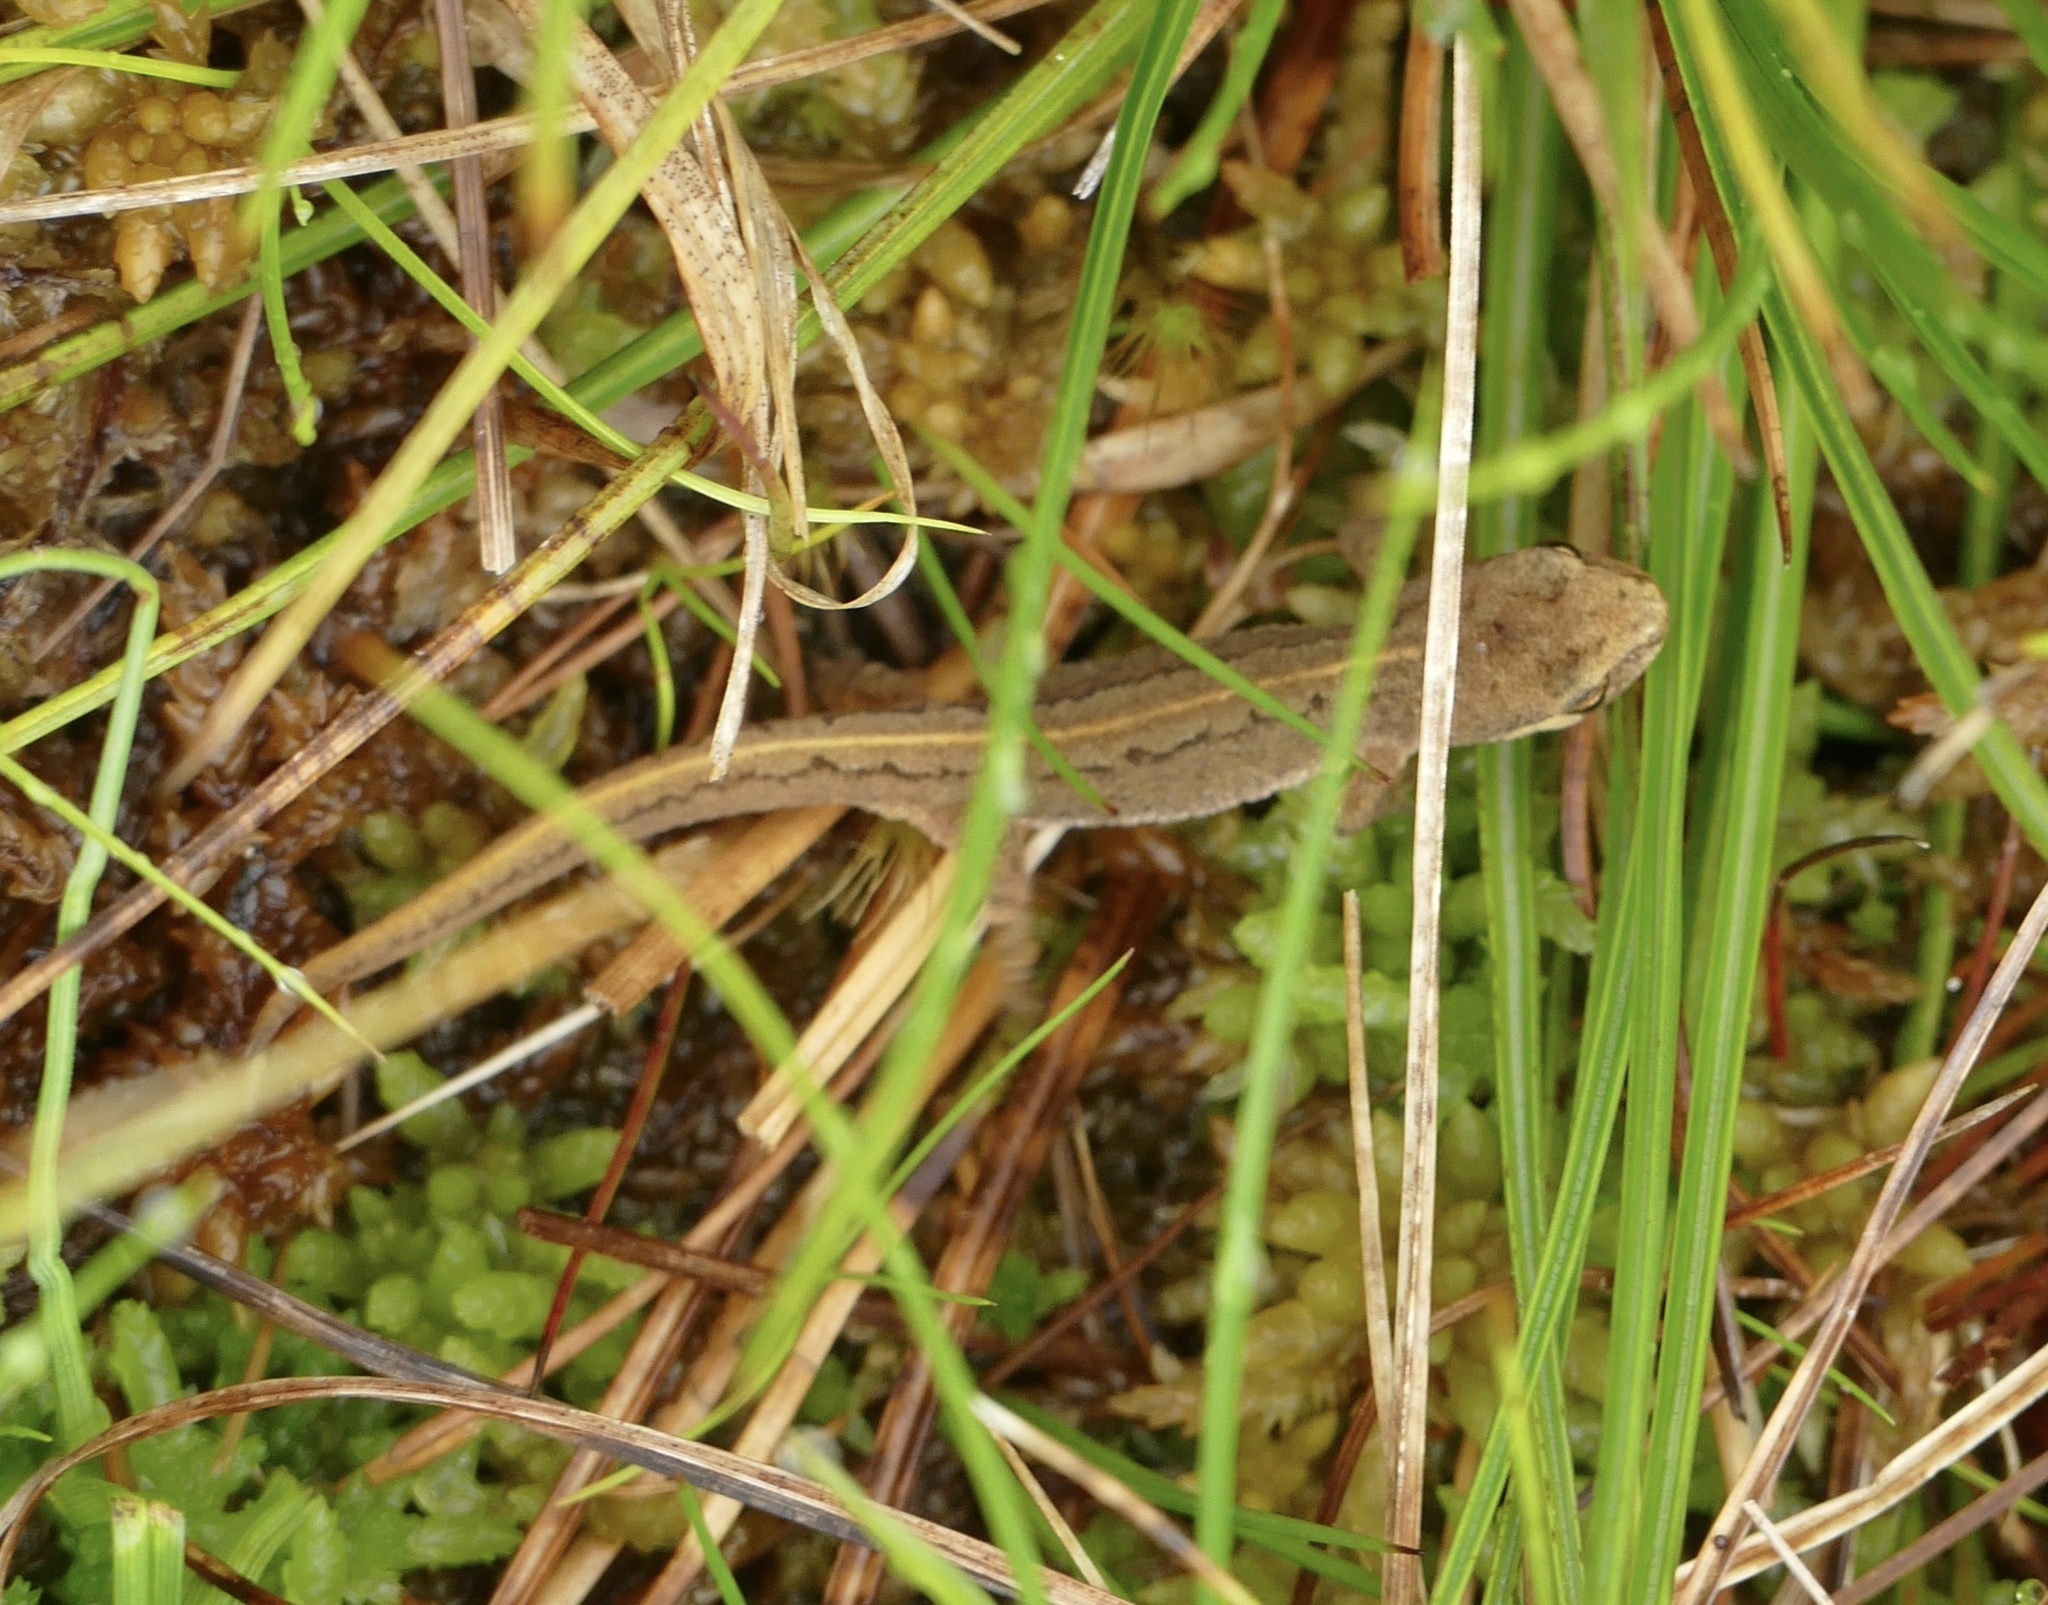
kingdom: Animalia
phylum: Chordata
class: Amphibia
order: Caudata
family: Salamandridae
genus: Lissotriton
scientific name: Lissotriton helveticus
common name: Palmate newt
